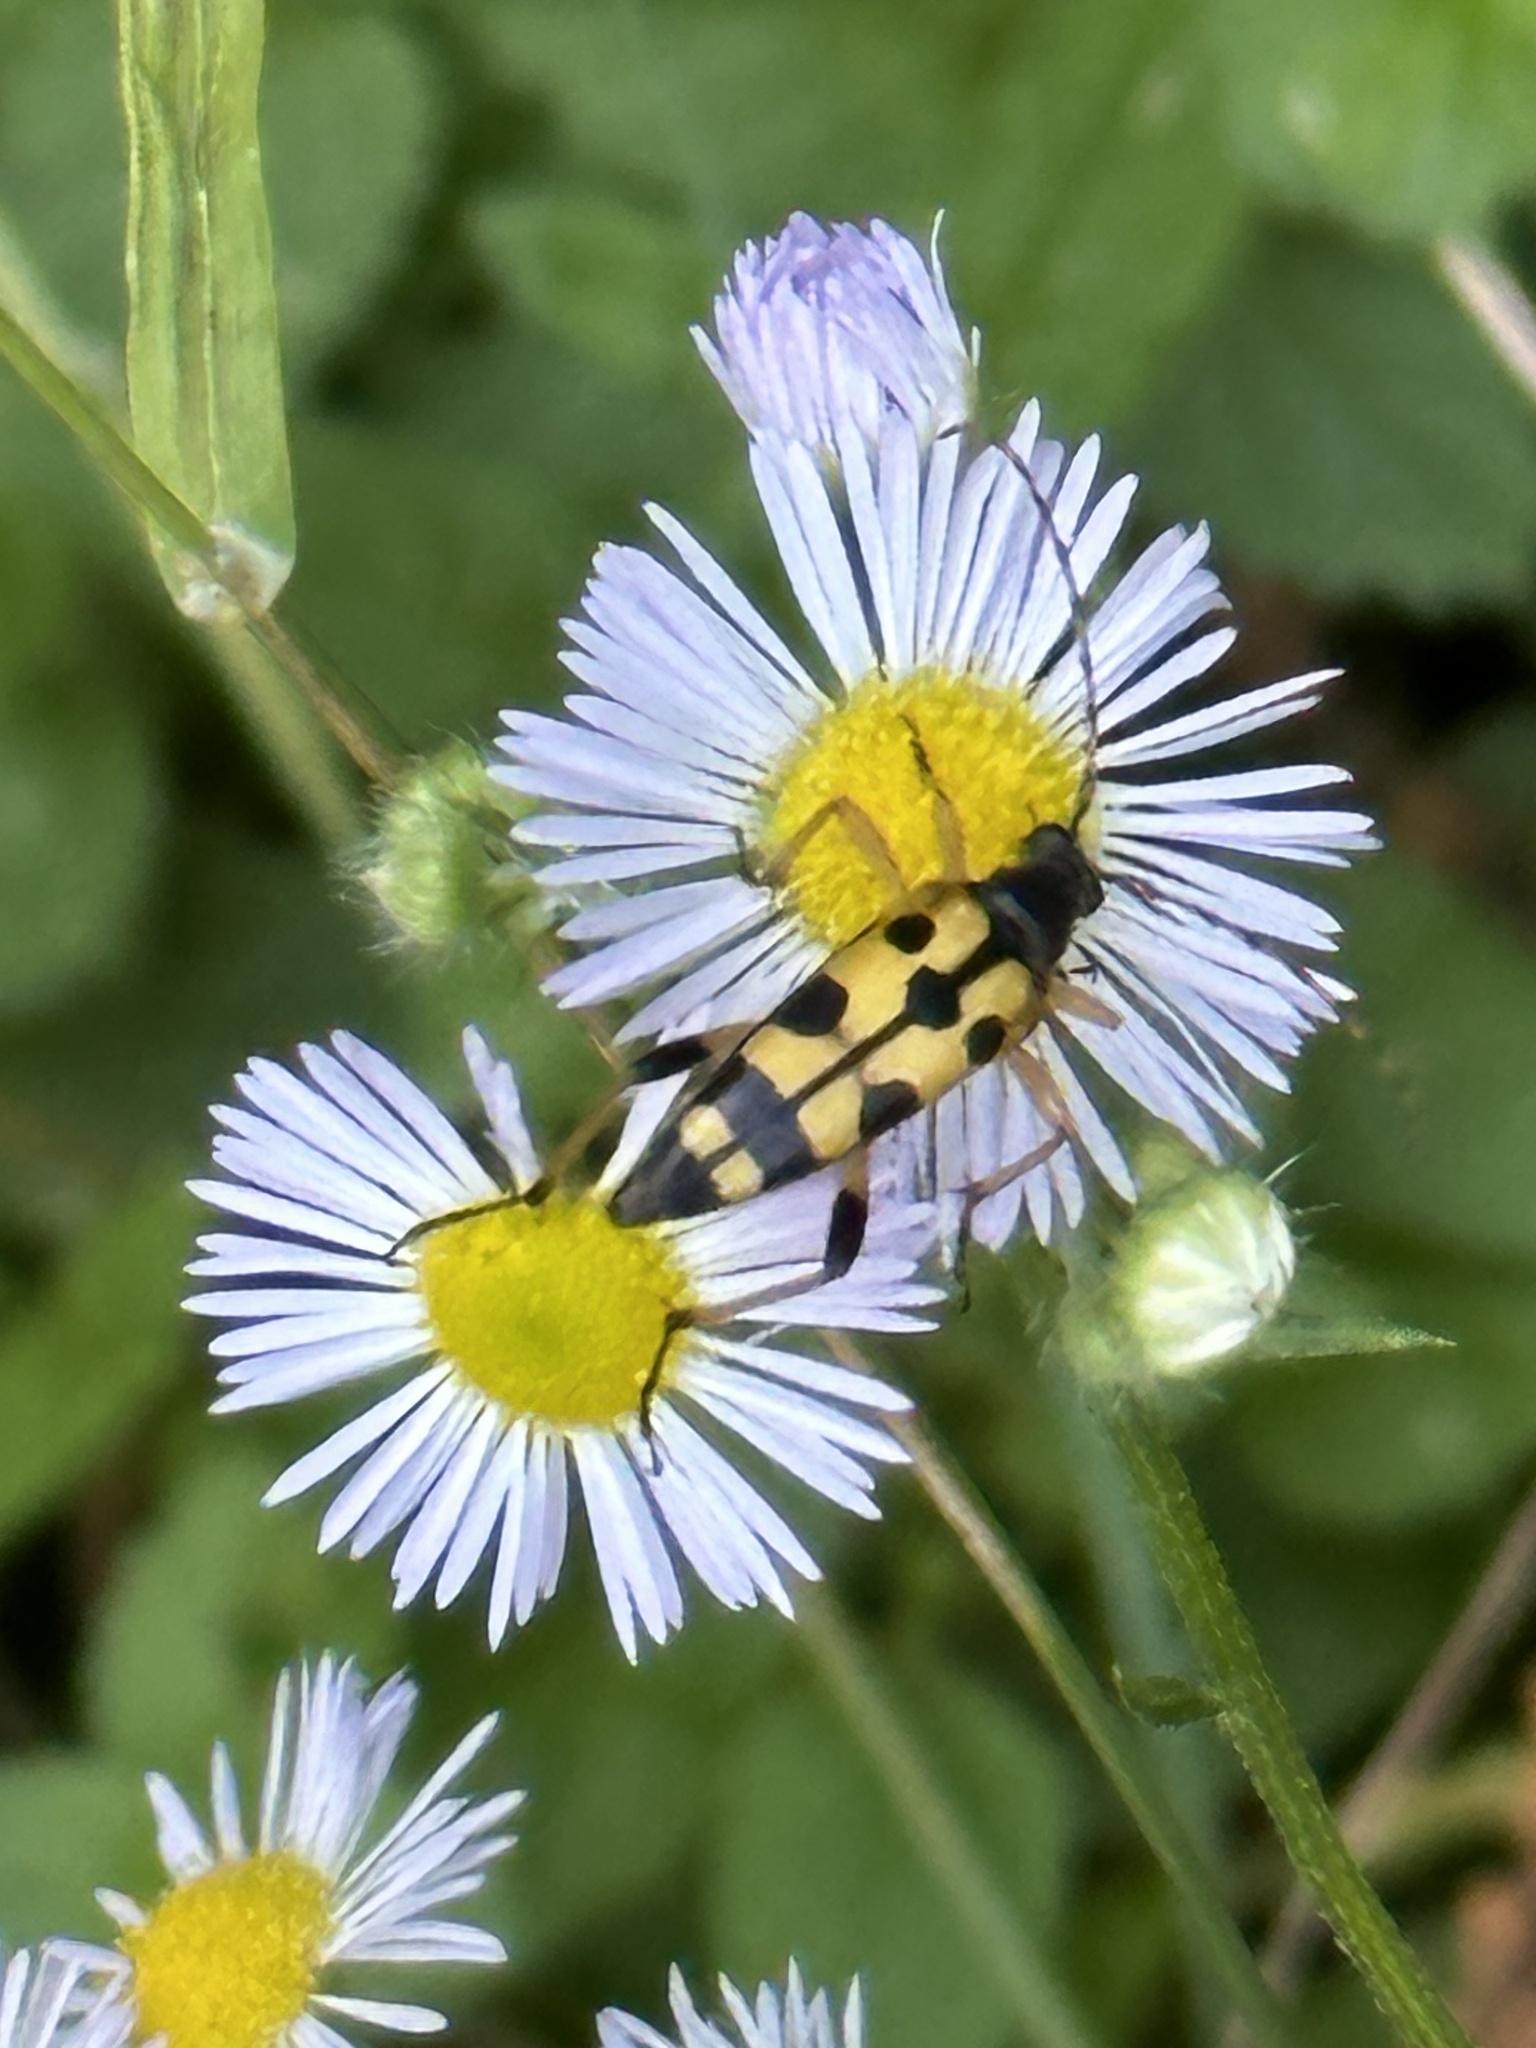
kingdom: Animalia
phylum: Arthropoda
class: Insecta
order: Coleoptera
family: Cerambycidae
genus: Rutpela
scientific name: Rutpela maculata
